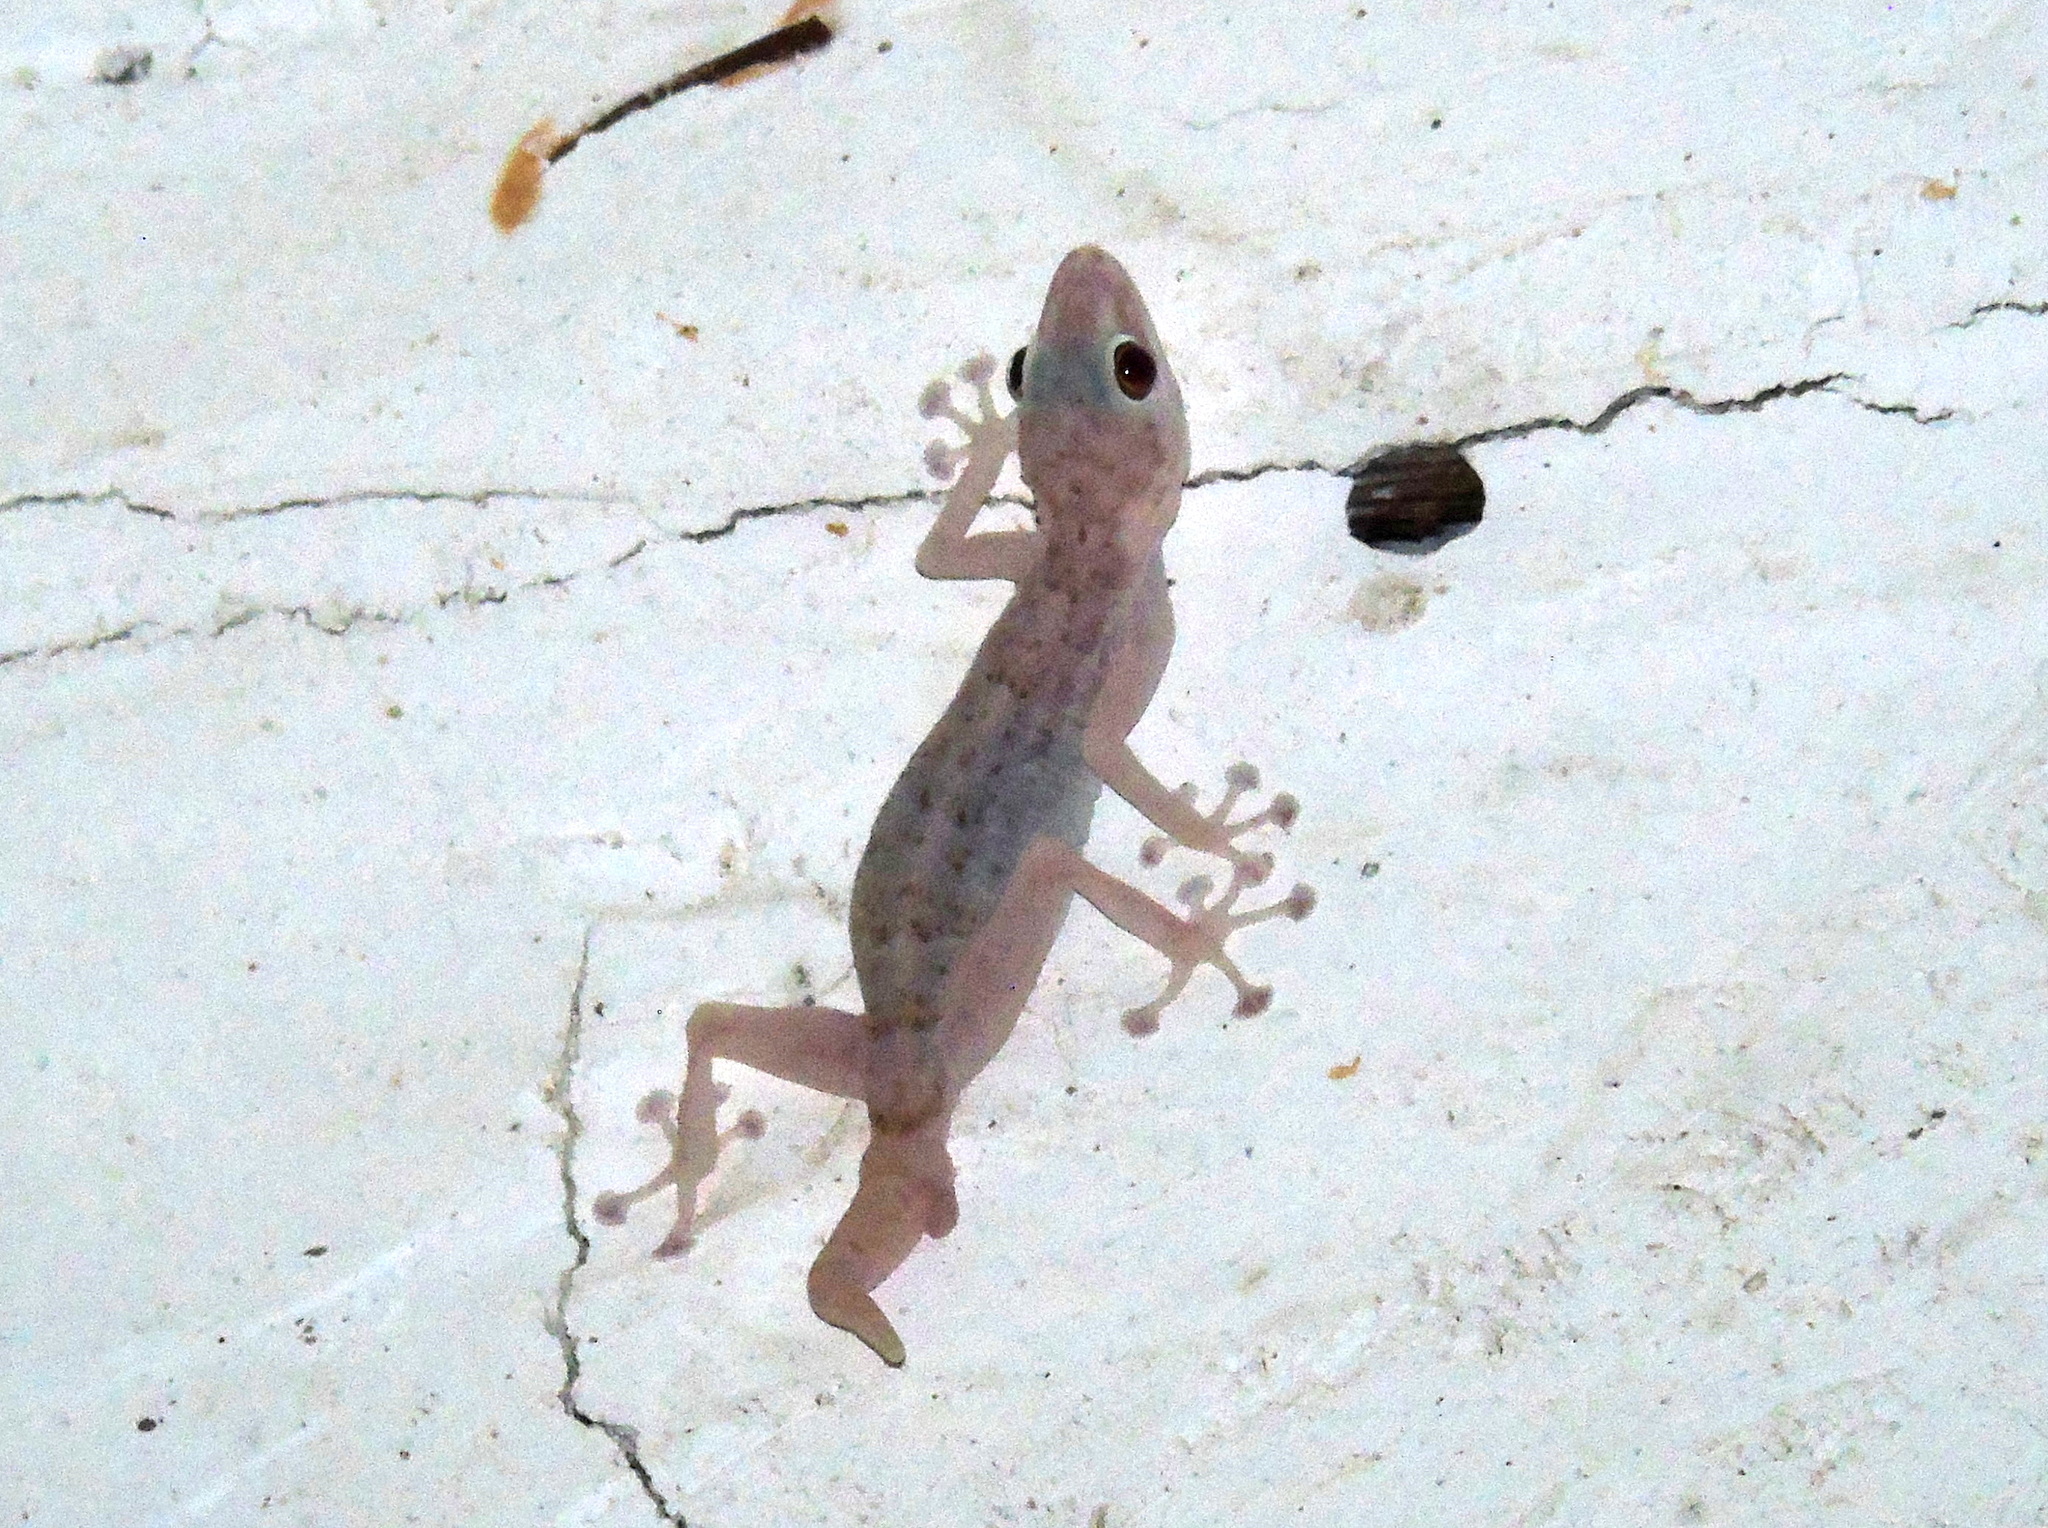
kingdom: Animalia
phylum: Chordata
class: Squamata
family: Phyllodactylidae
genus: Ptyodactylus
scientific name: Ptyodactylus hasselquistii
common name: Hasselquist’s fan-footed gecko
